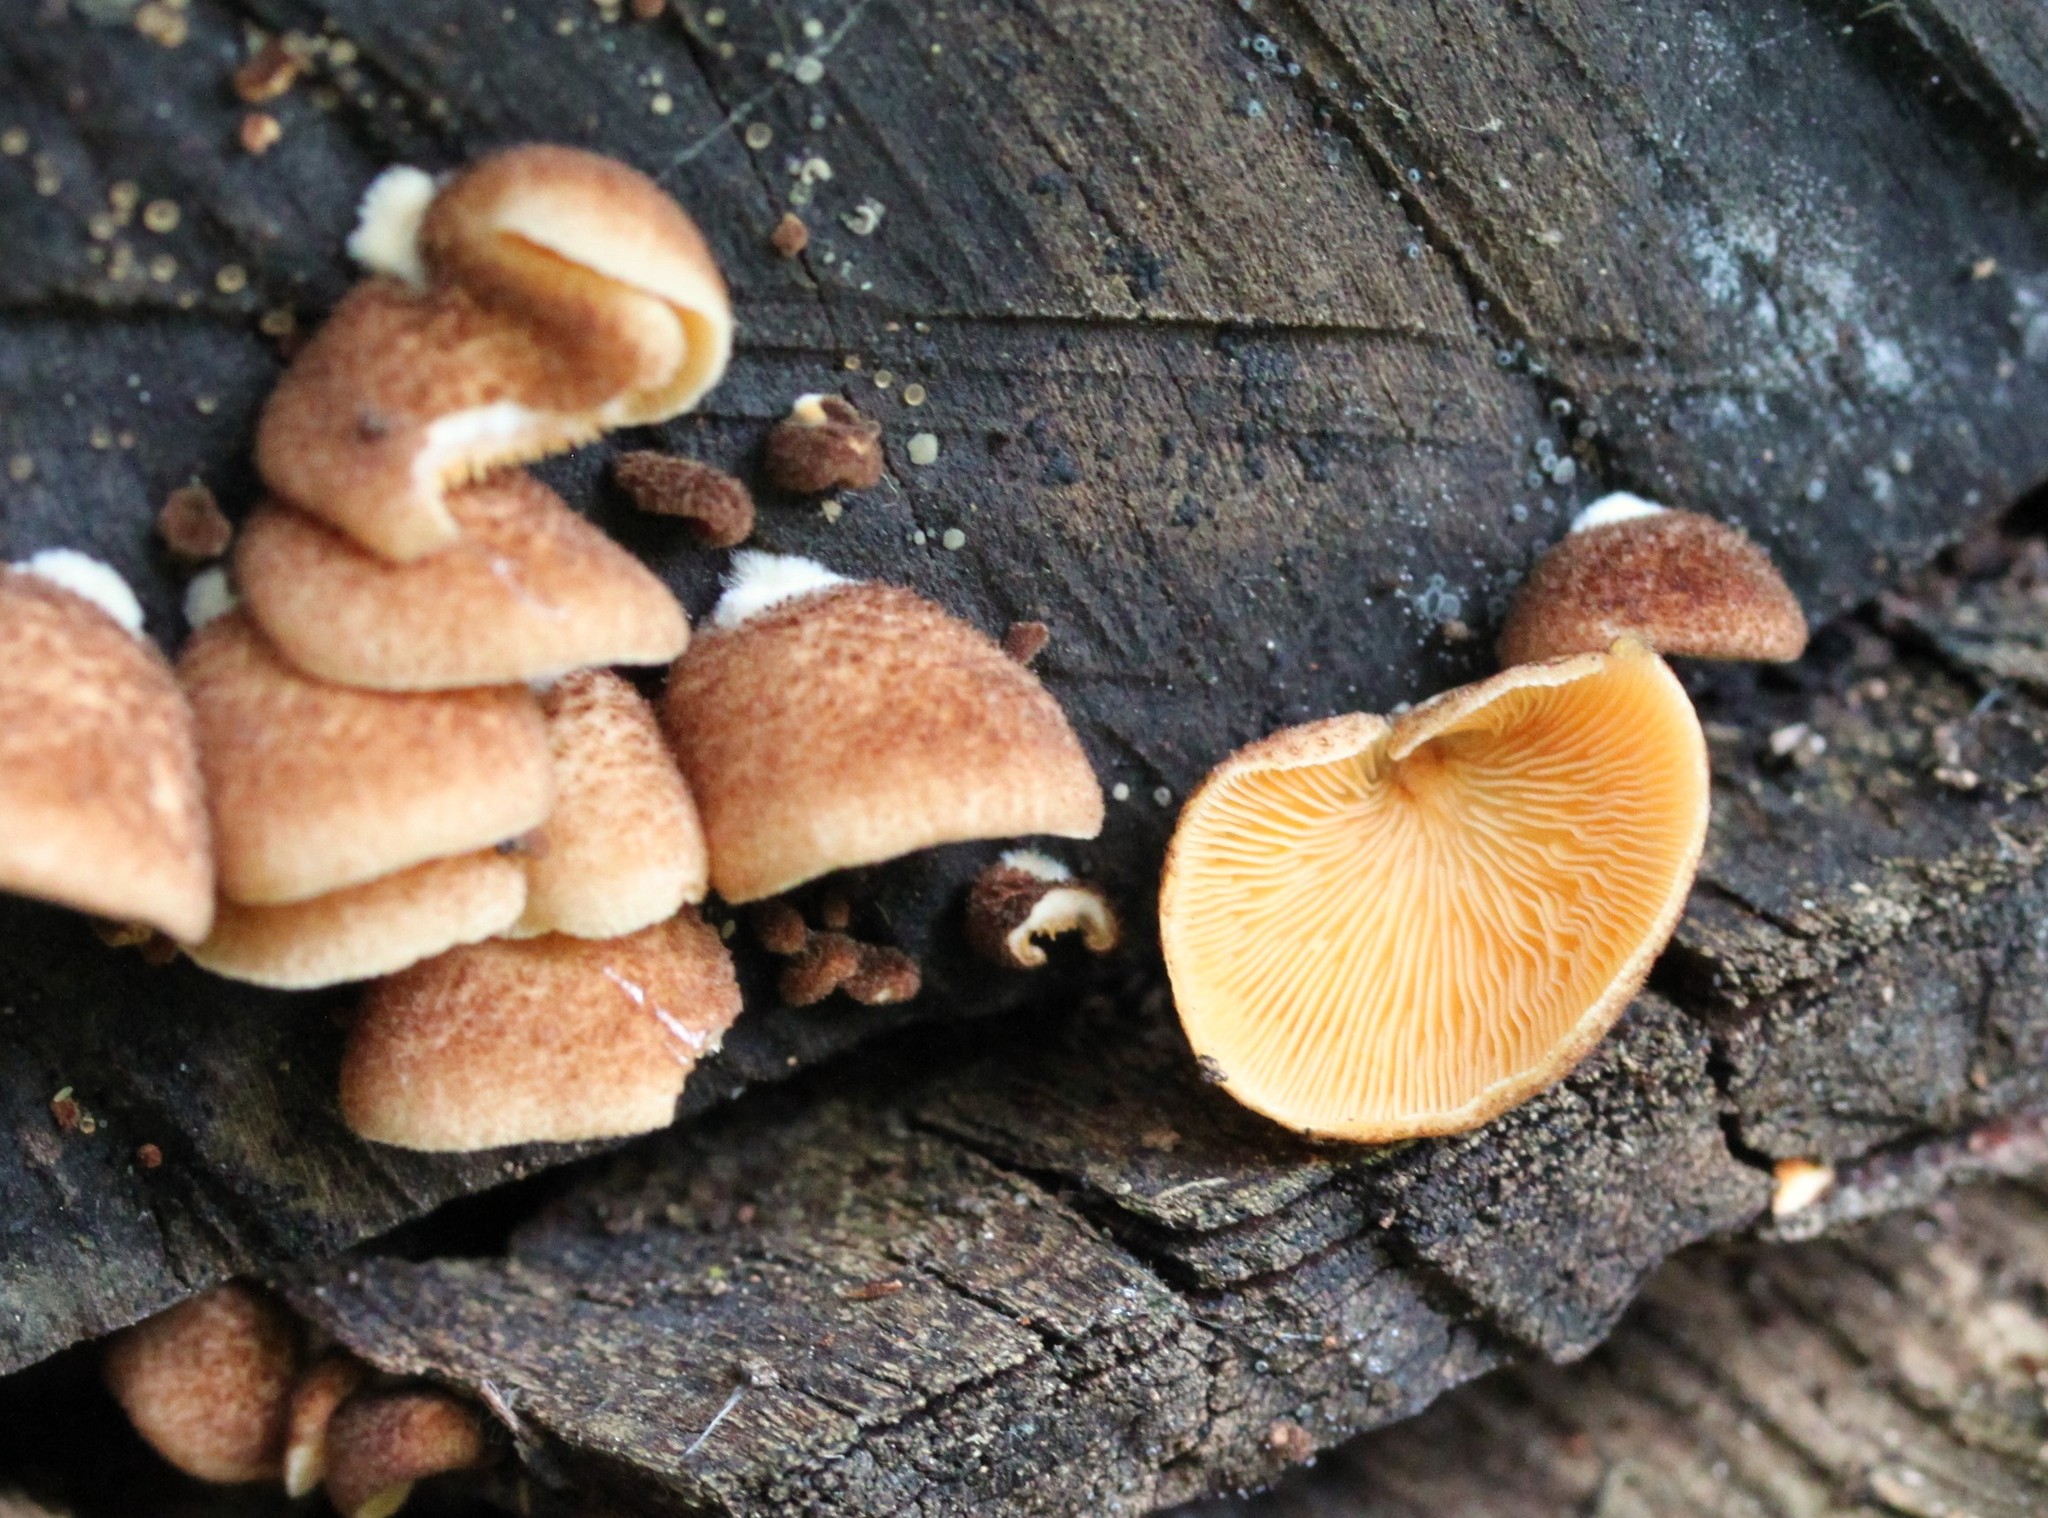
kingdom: Fungi
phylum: Basidiomycota
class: Agaricomycetes
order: Agaricales
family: Crepidotaceae
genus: Crepidotus
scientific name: Crepidotus crocophyllus
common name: Saffron oysterling
